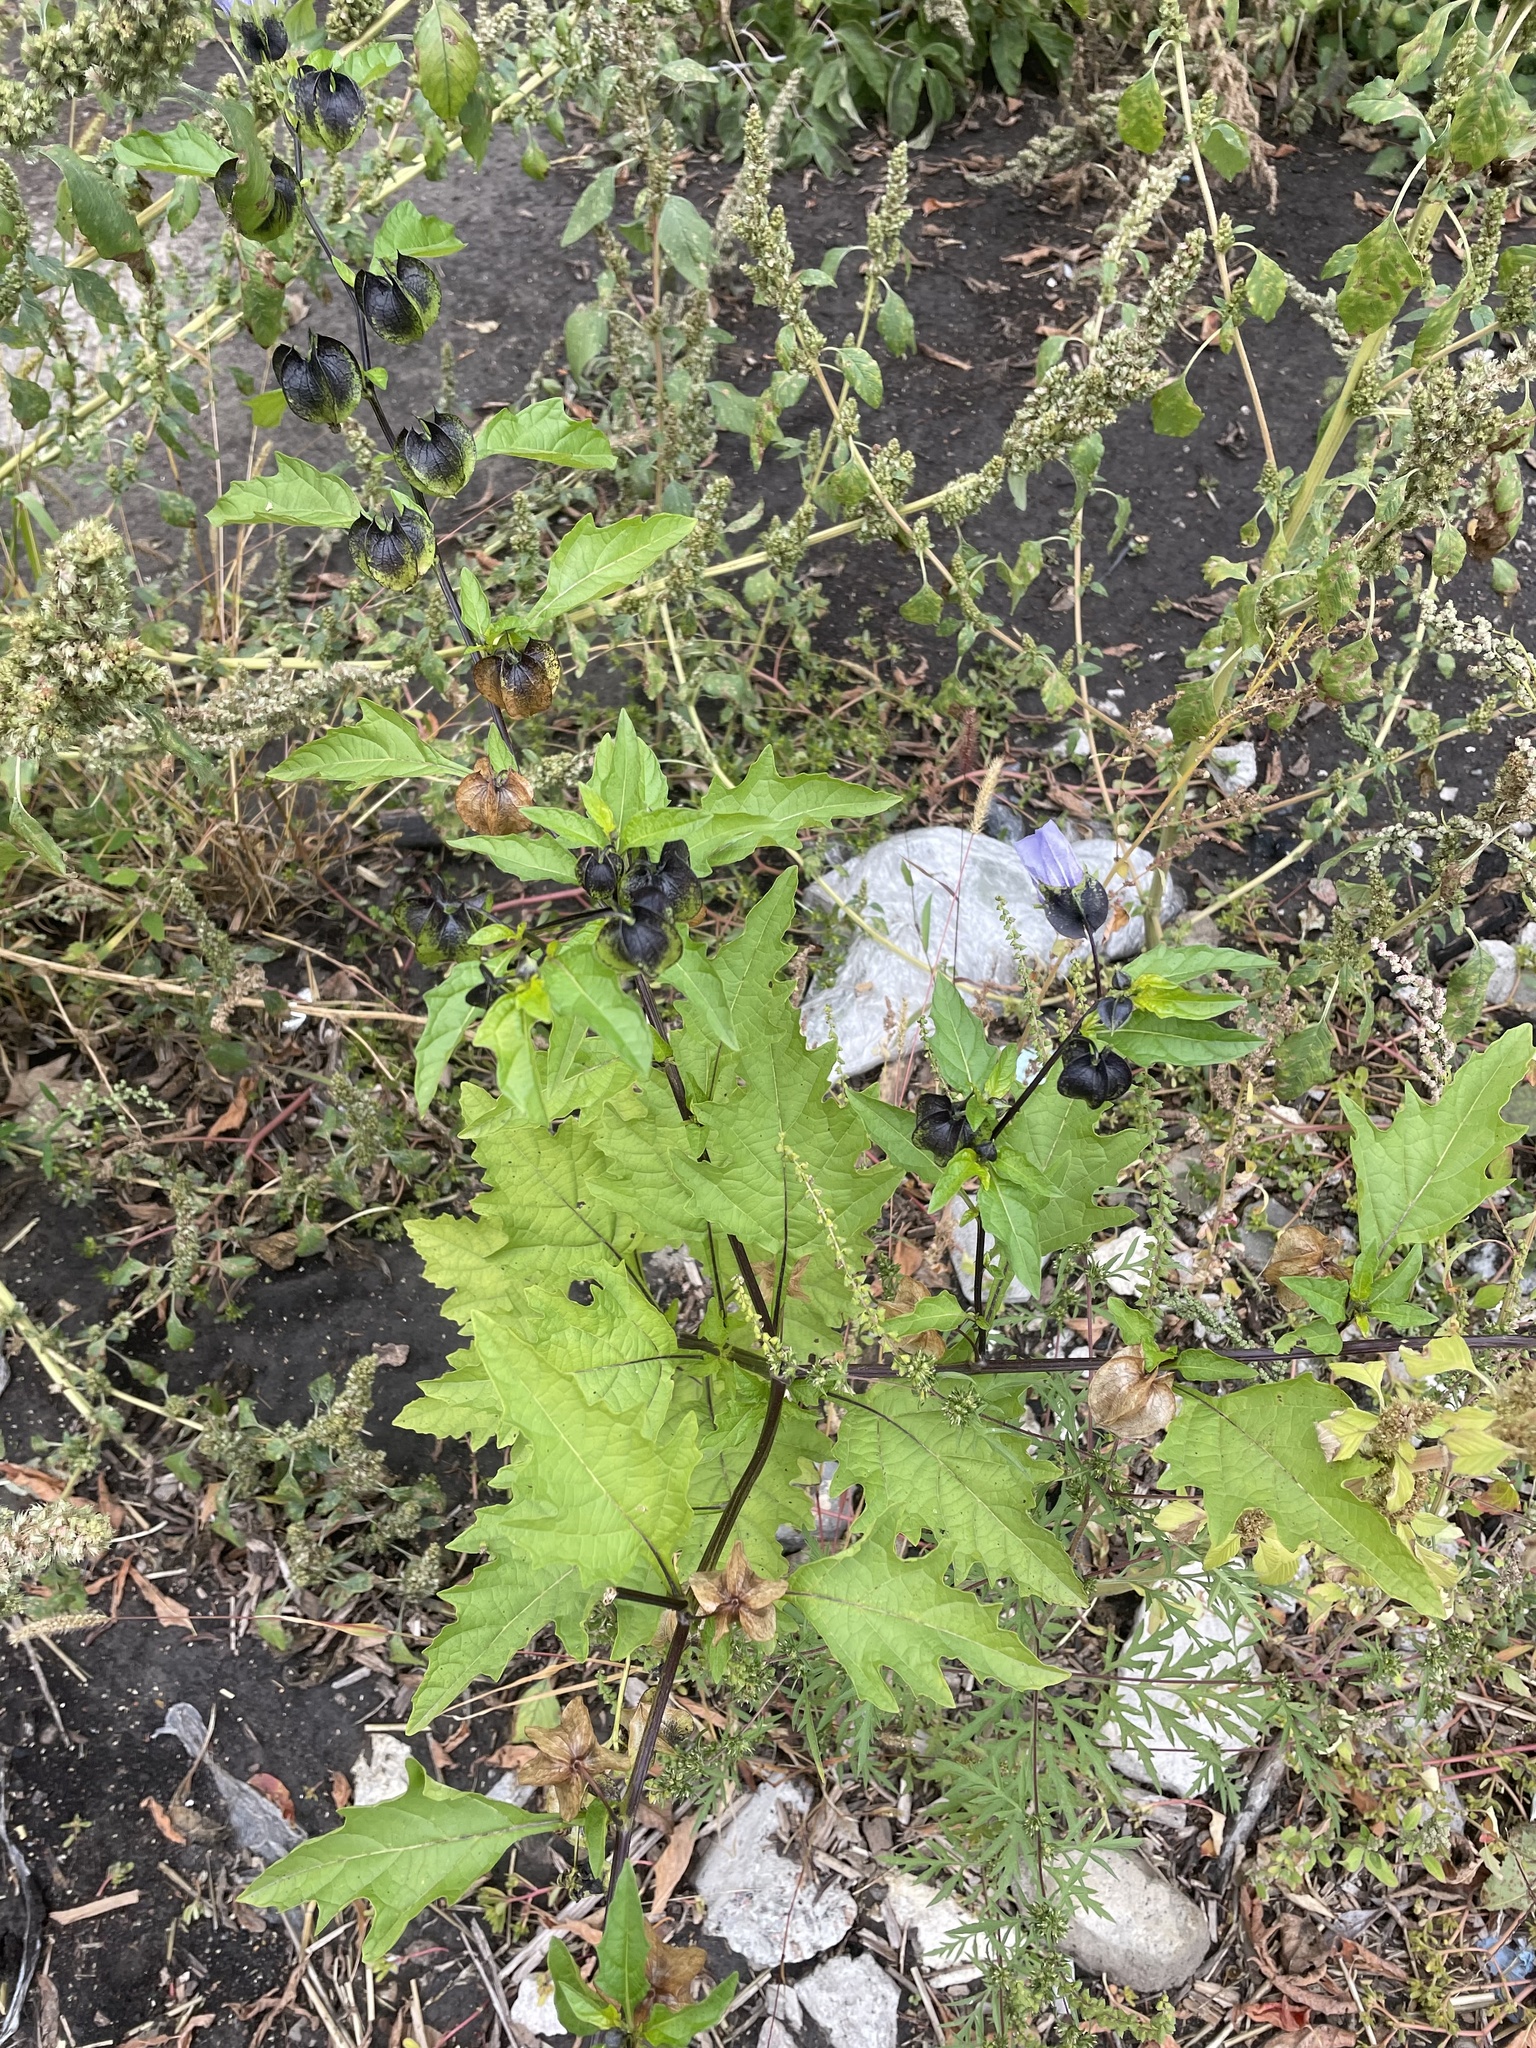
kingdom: Plantae
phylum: Tracheophyta
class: Magnoliopsida
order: Solanales
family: Solanaceae
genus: Nicandra
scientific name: Nicandra physalodes
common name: Apple-of-peru
